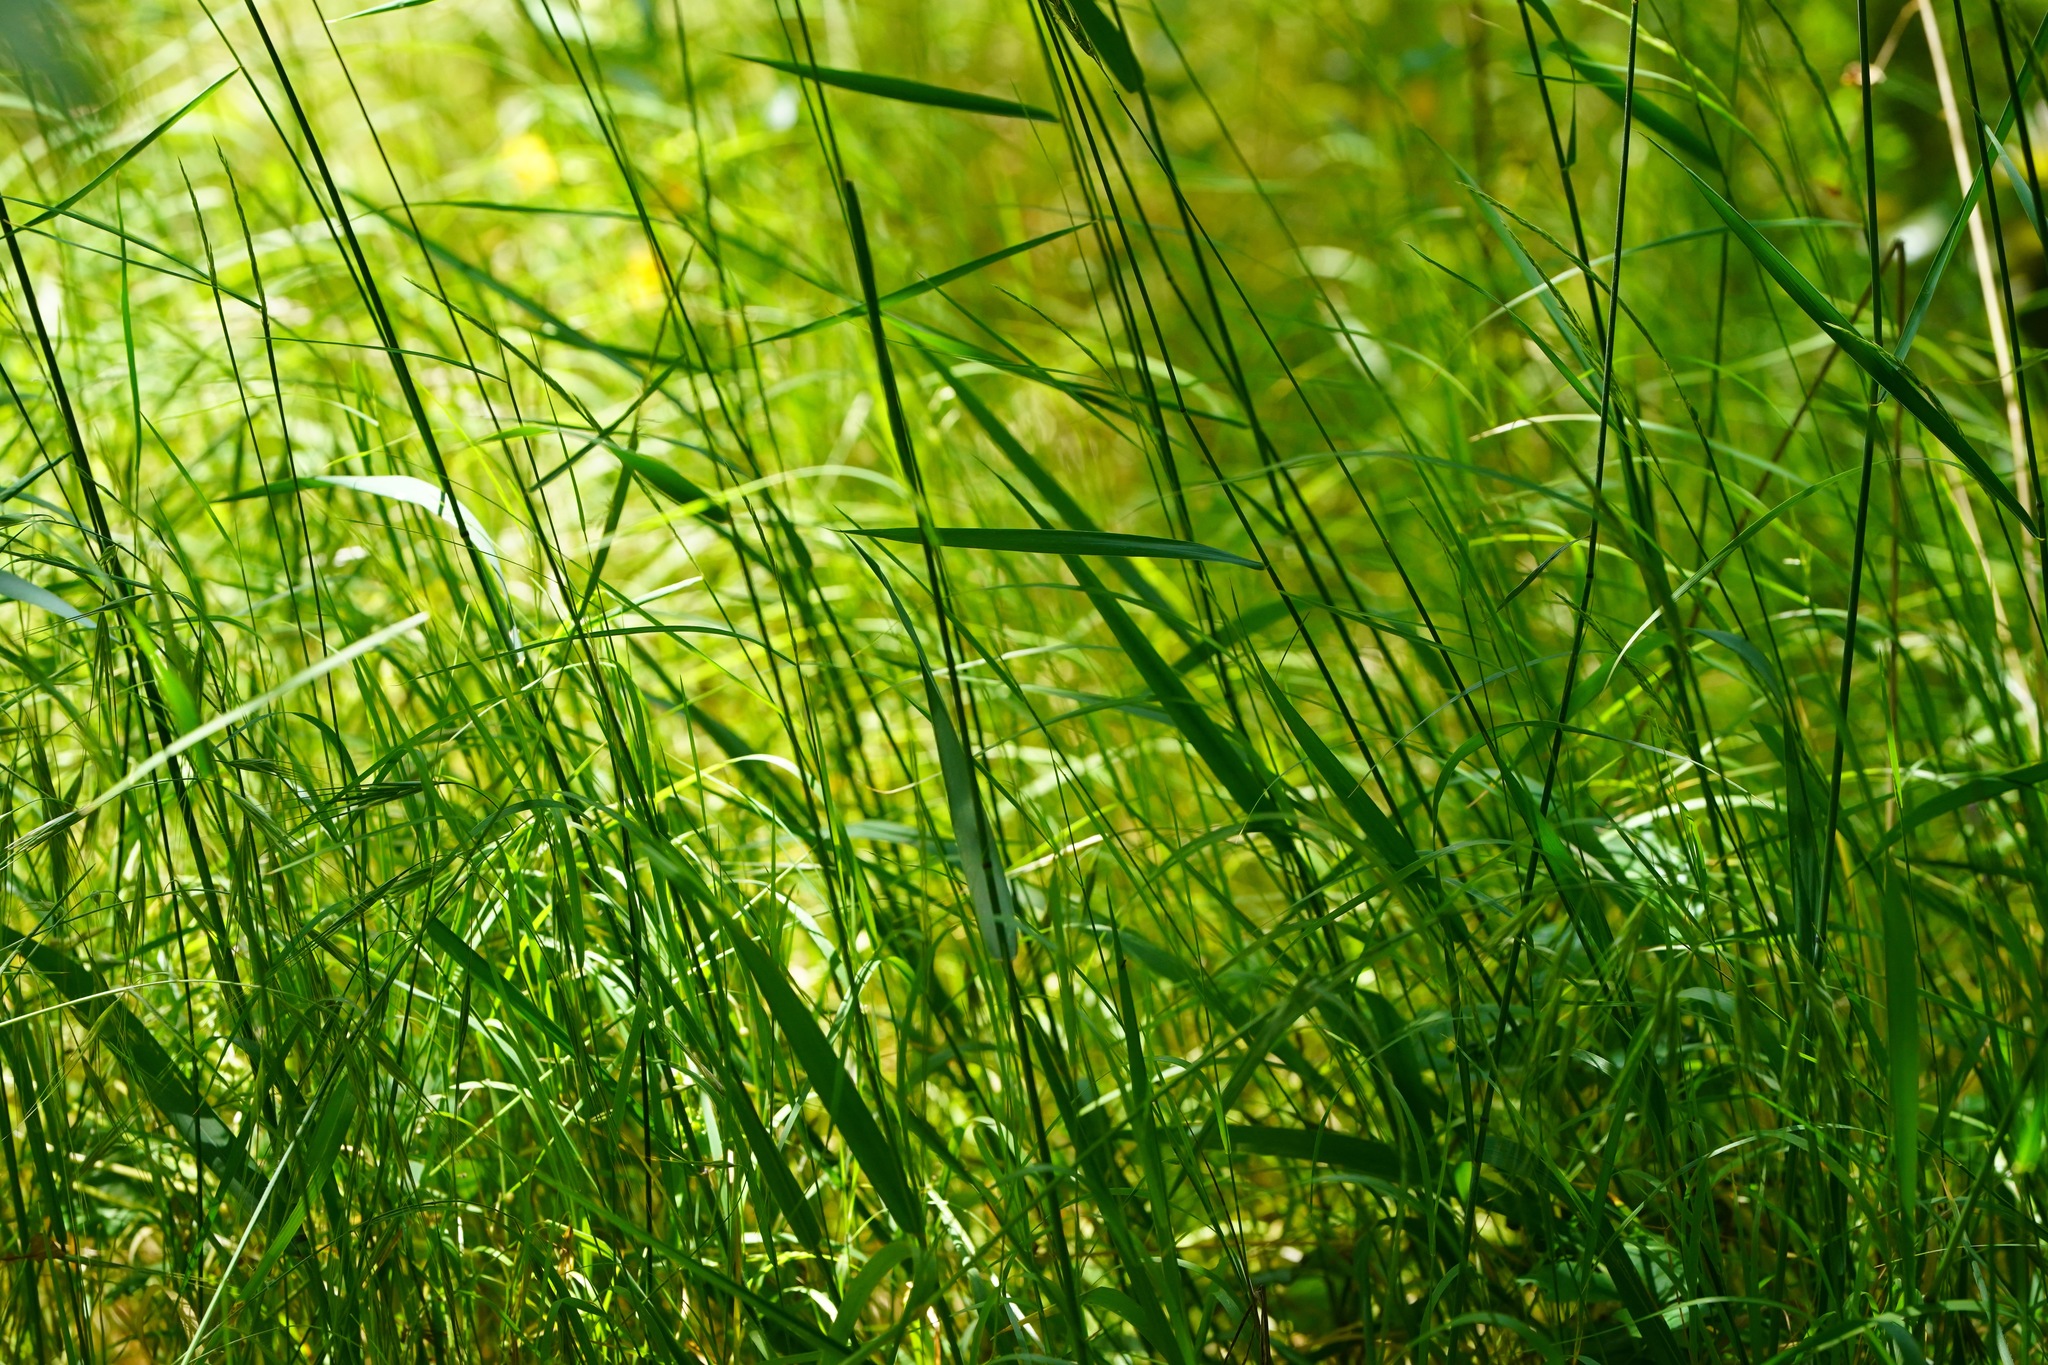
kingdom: Plantae
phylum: Tracheophyta
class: Liliopsida
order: Poales
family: Poaceae
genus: Elymus
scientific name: Elymus glaucus
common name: Blue wild rye
